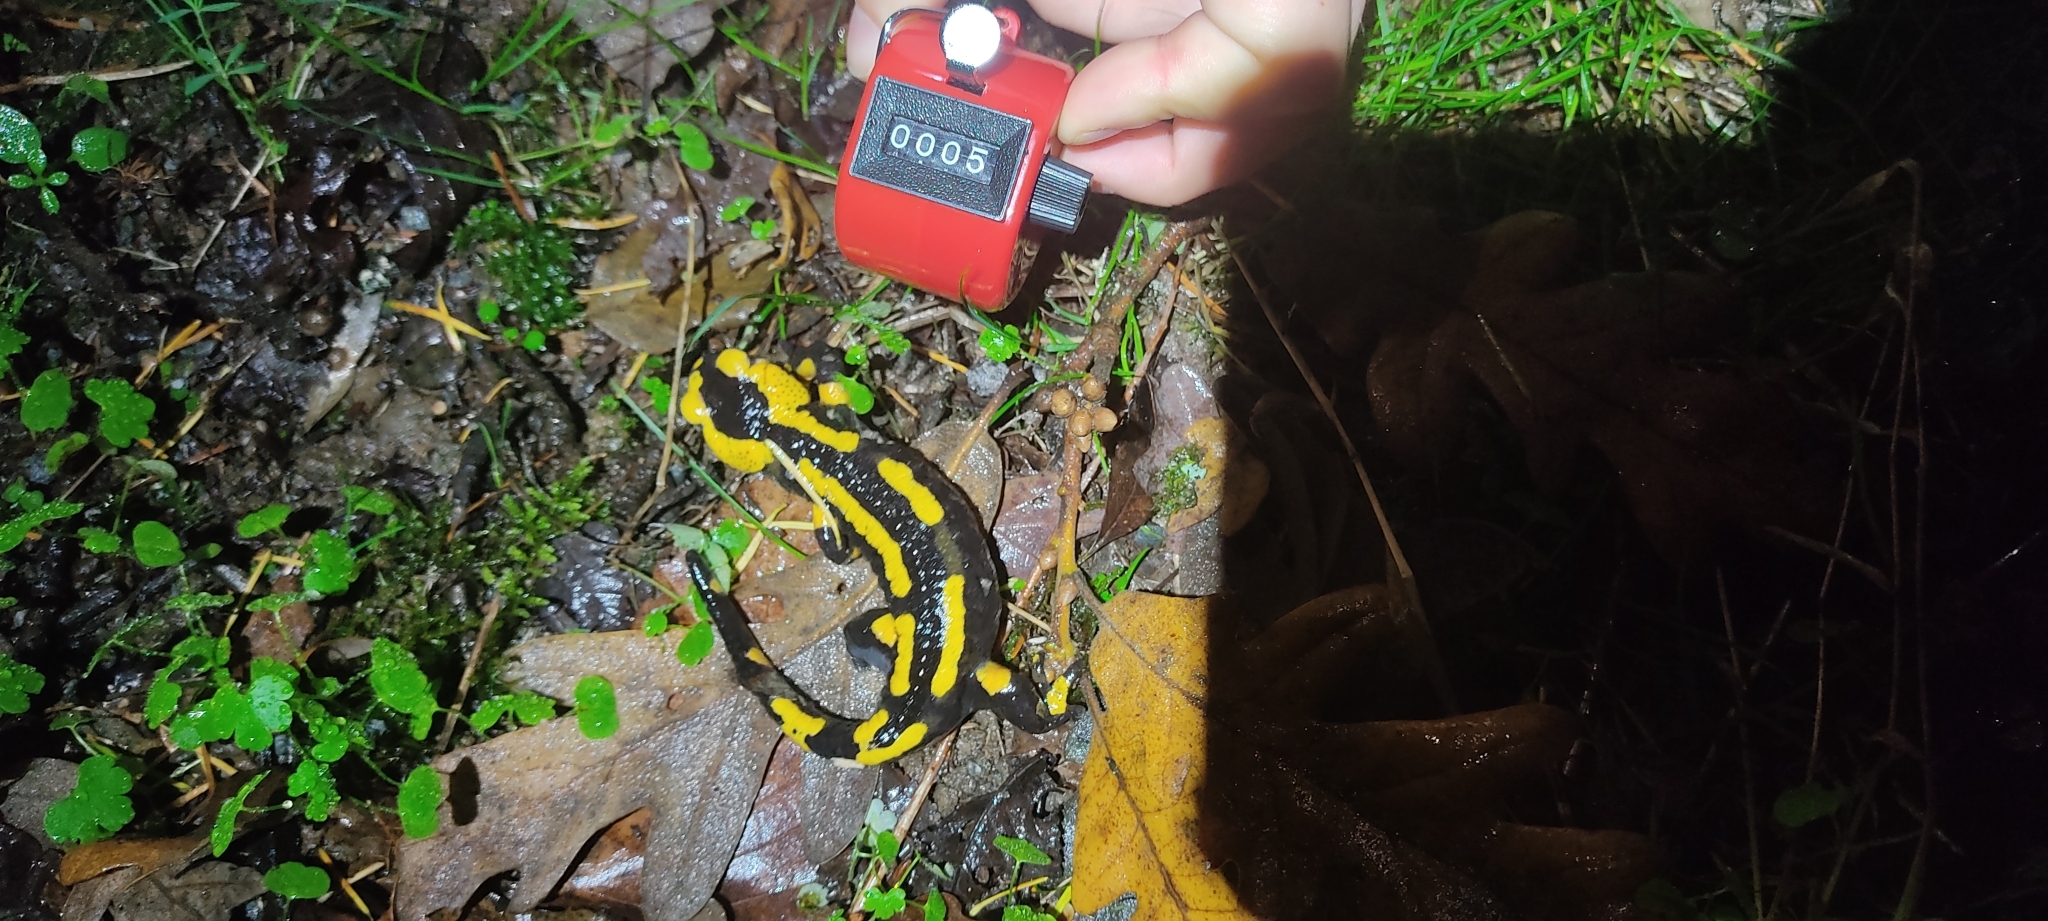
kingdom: Animalia
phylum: Chordata
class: Amphibia
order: Caudata
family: Salamandridae
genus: Salamandra
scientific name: Salamandra salamandra
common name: Fire salamander
